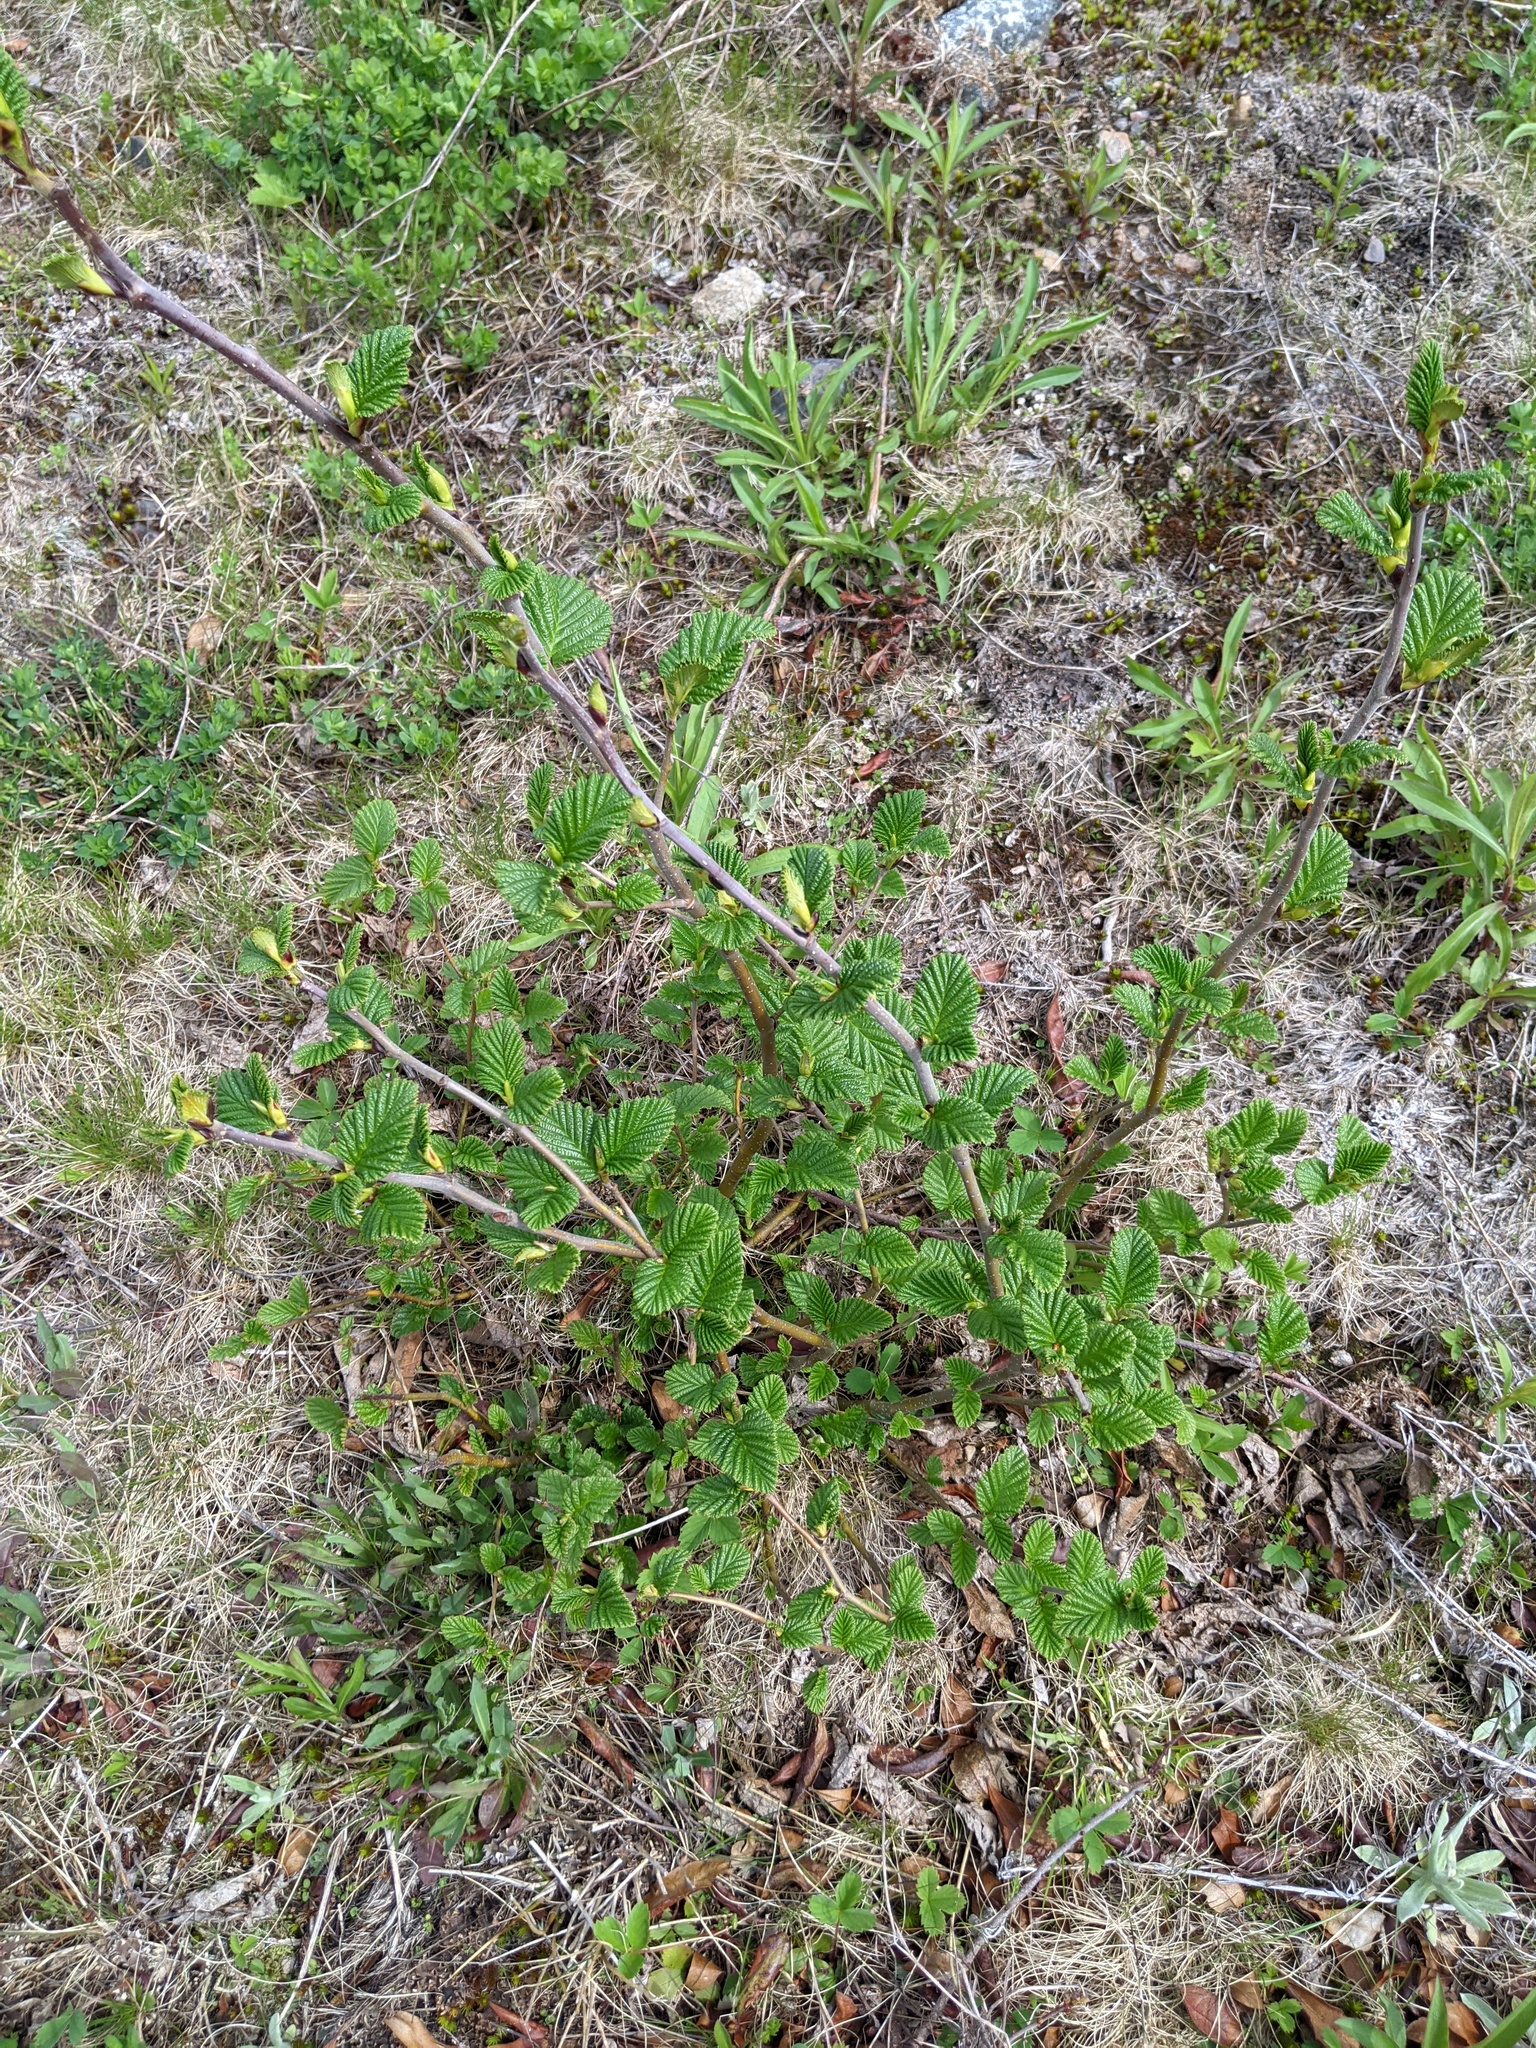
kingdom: Plantae
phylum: Tracheophyta
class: Magnoliopsida
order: Fagales
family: Betulaceae
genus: Alnus
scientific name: Alnus alnobetula
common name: Green alder
